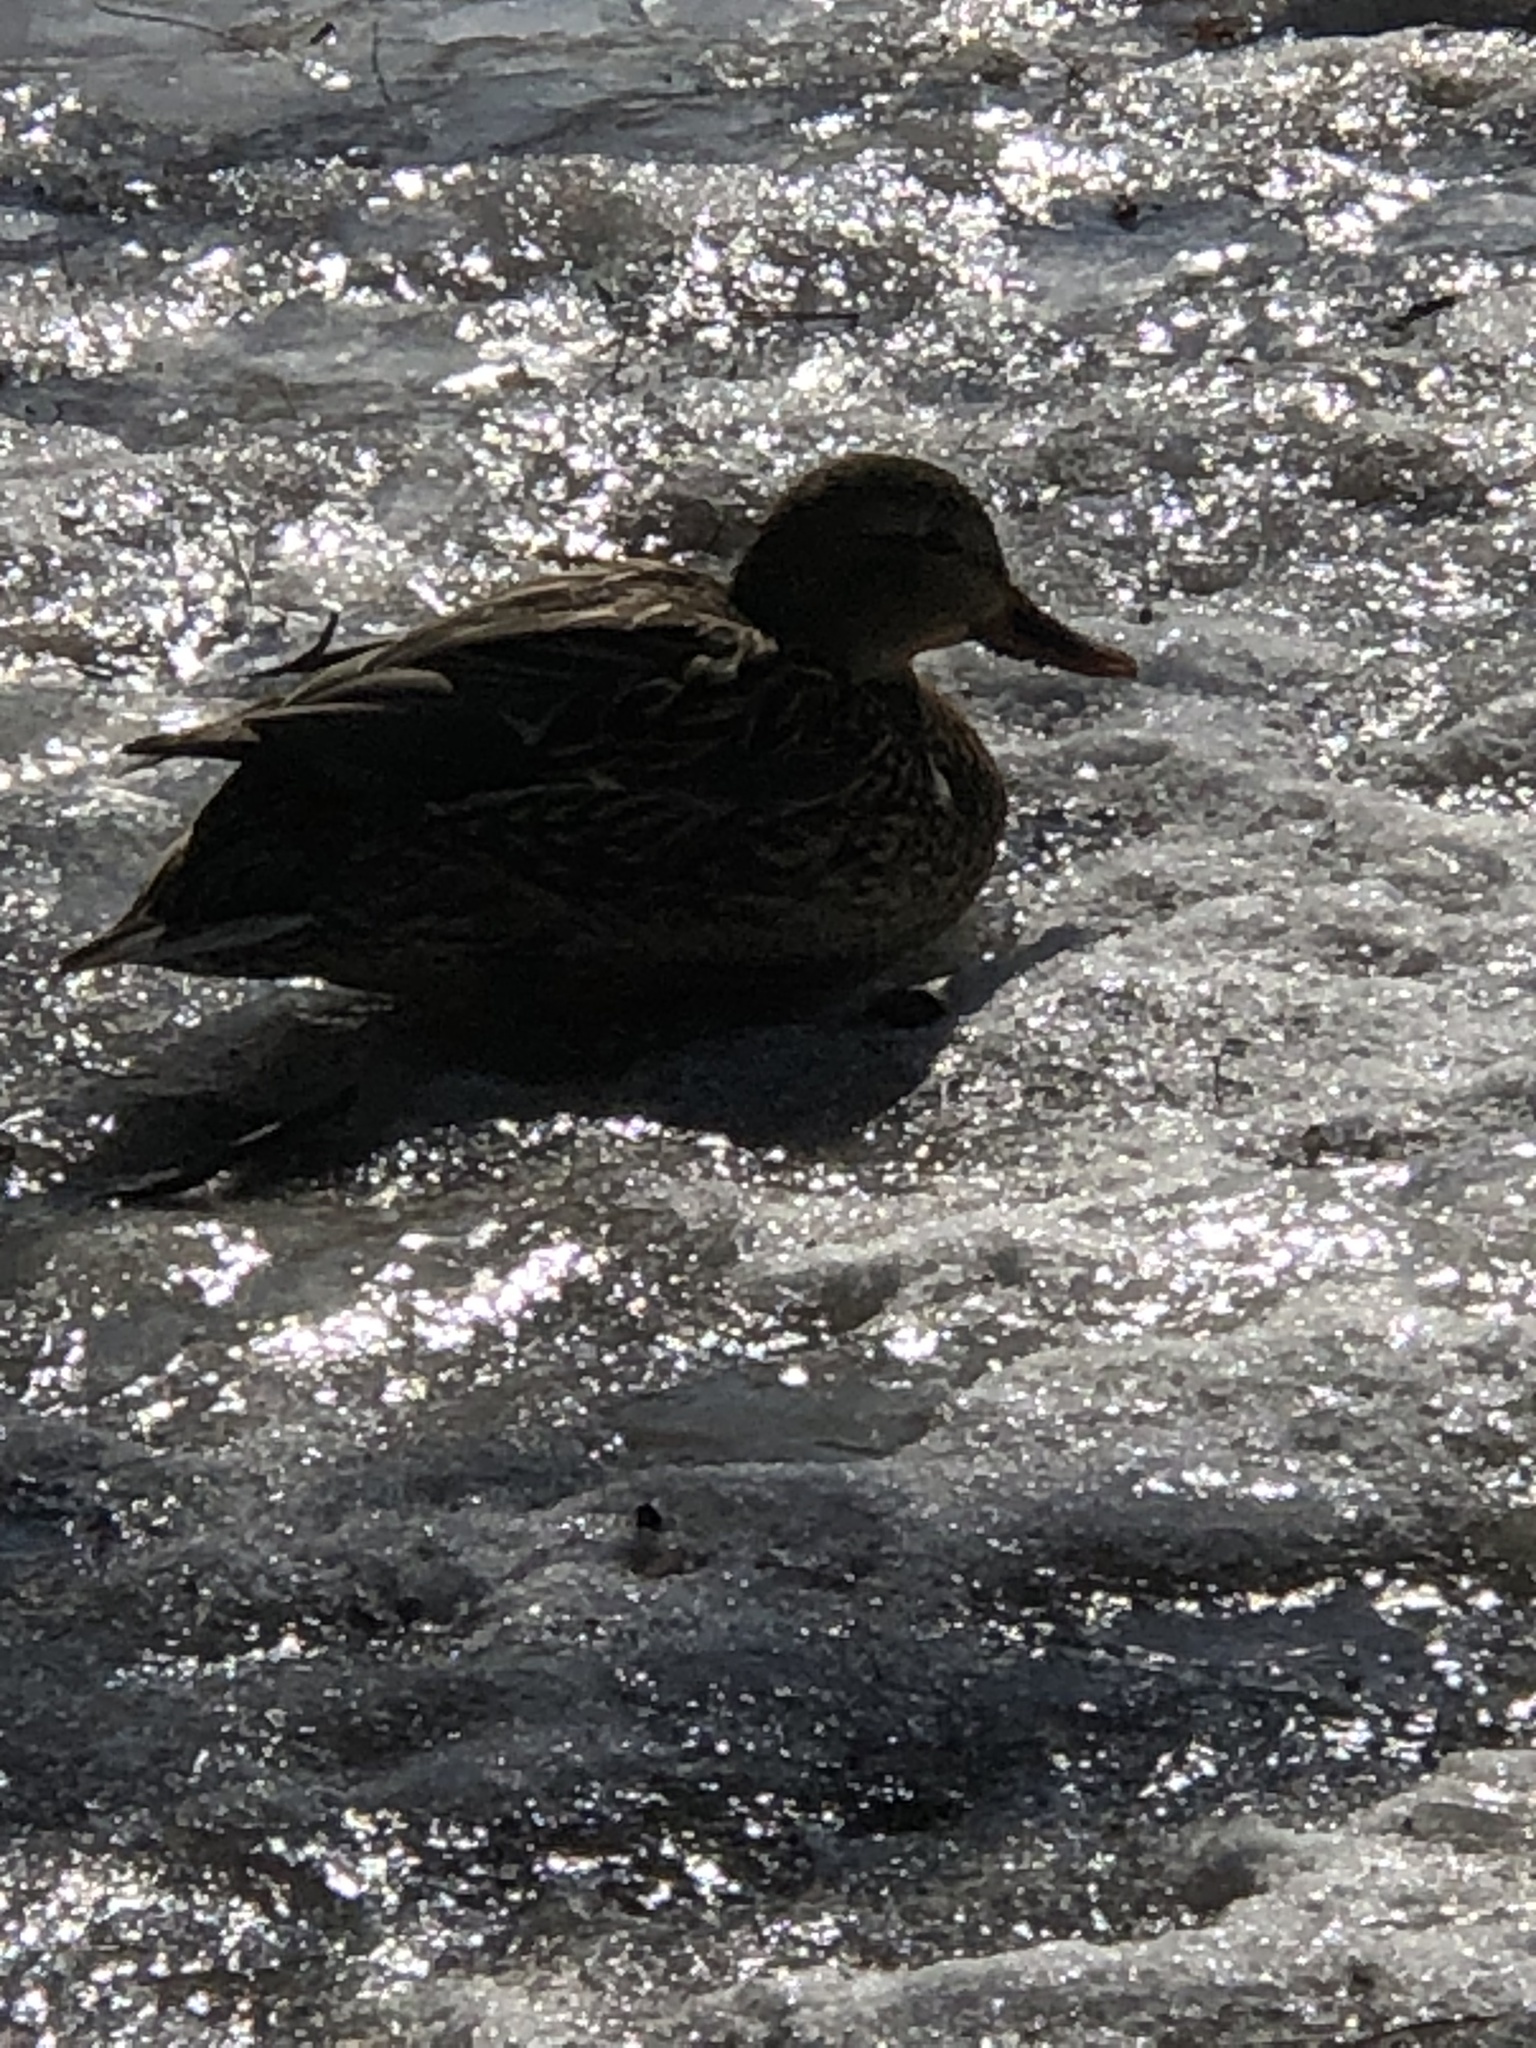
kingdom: Animalia
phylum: Chordata
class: Aves
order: Anseriformes
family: Anatidae
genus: Anas
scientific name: Anas platyrhynchos
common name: Mallard
